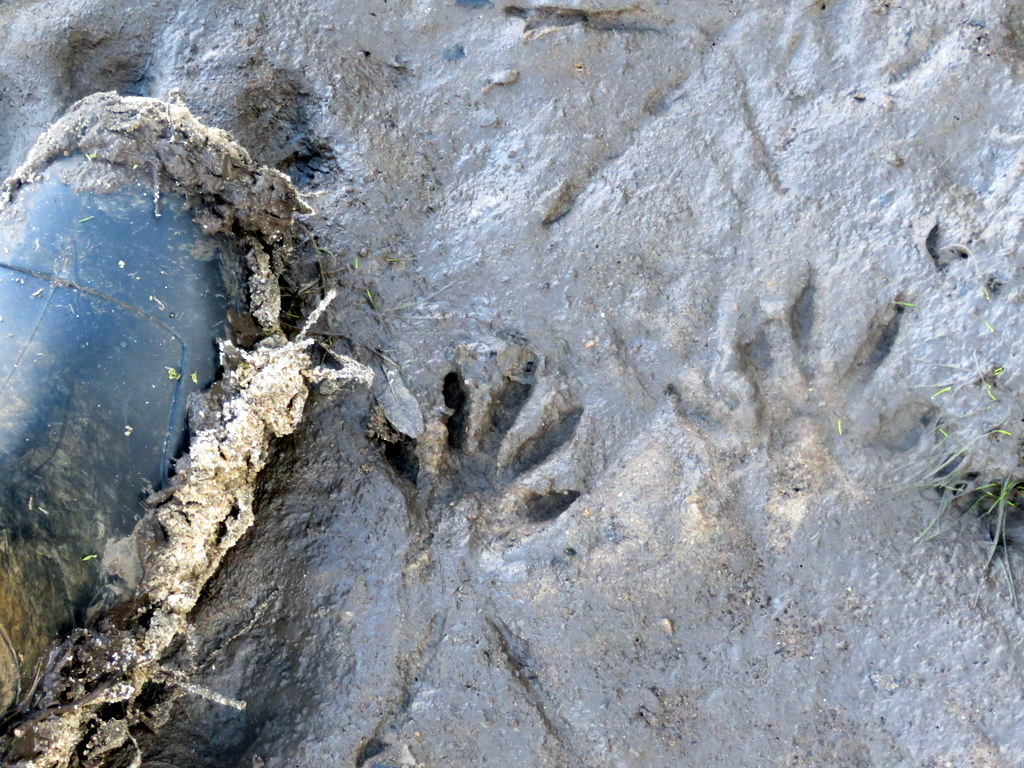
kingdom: Animalia
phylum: Chordata
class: Mammalia
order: Carnivora
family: Procyonidae
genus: Procyon
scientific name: Procyon cancrivorus
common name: Crab-eating raccoon
